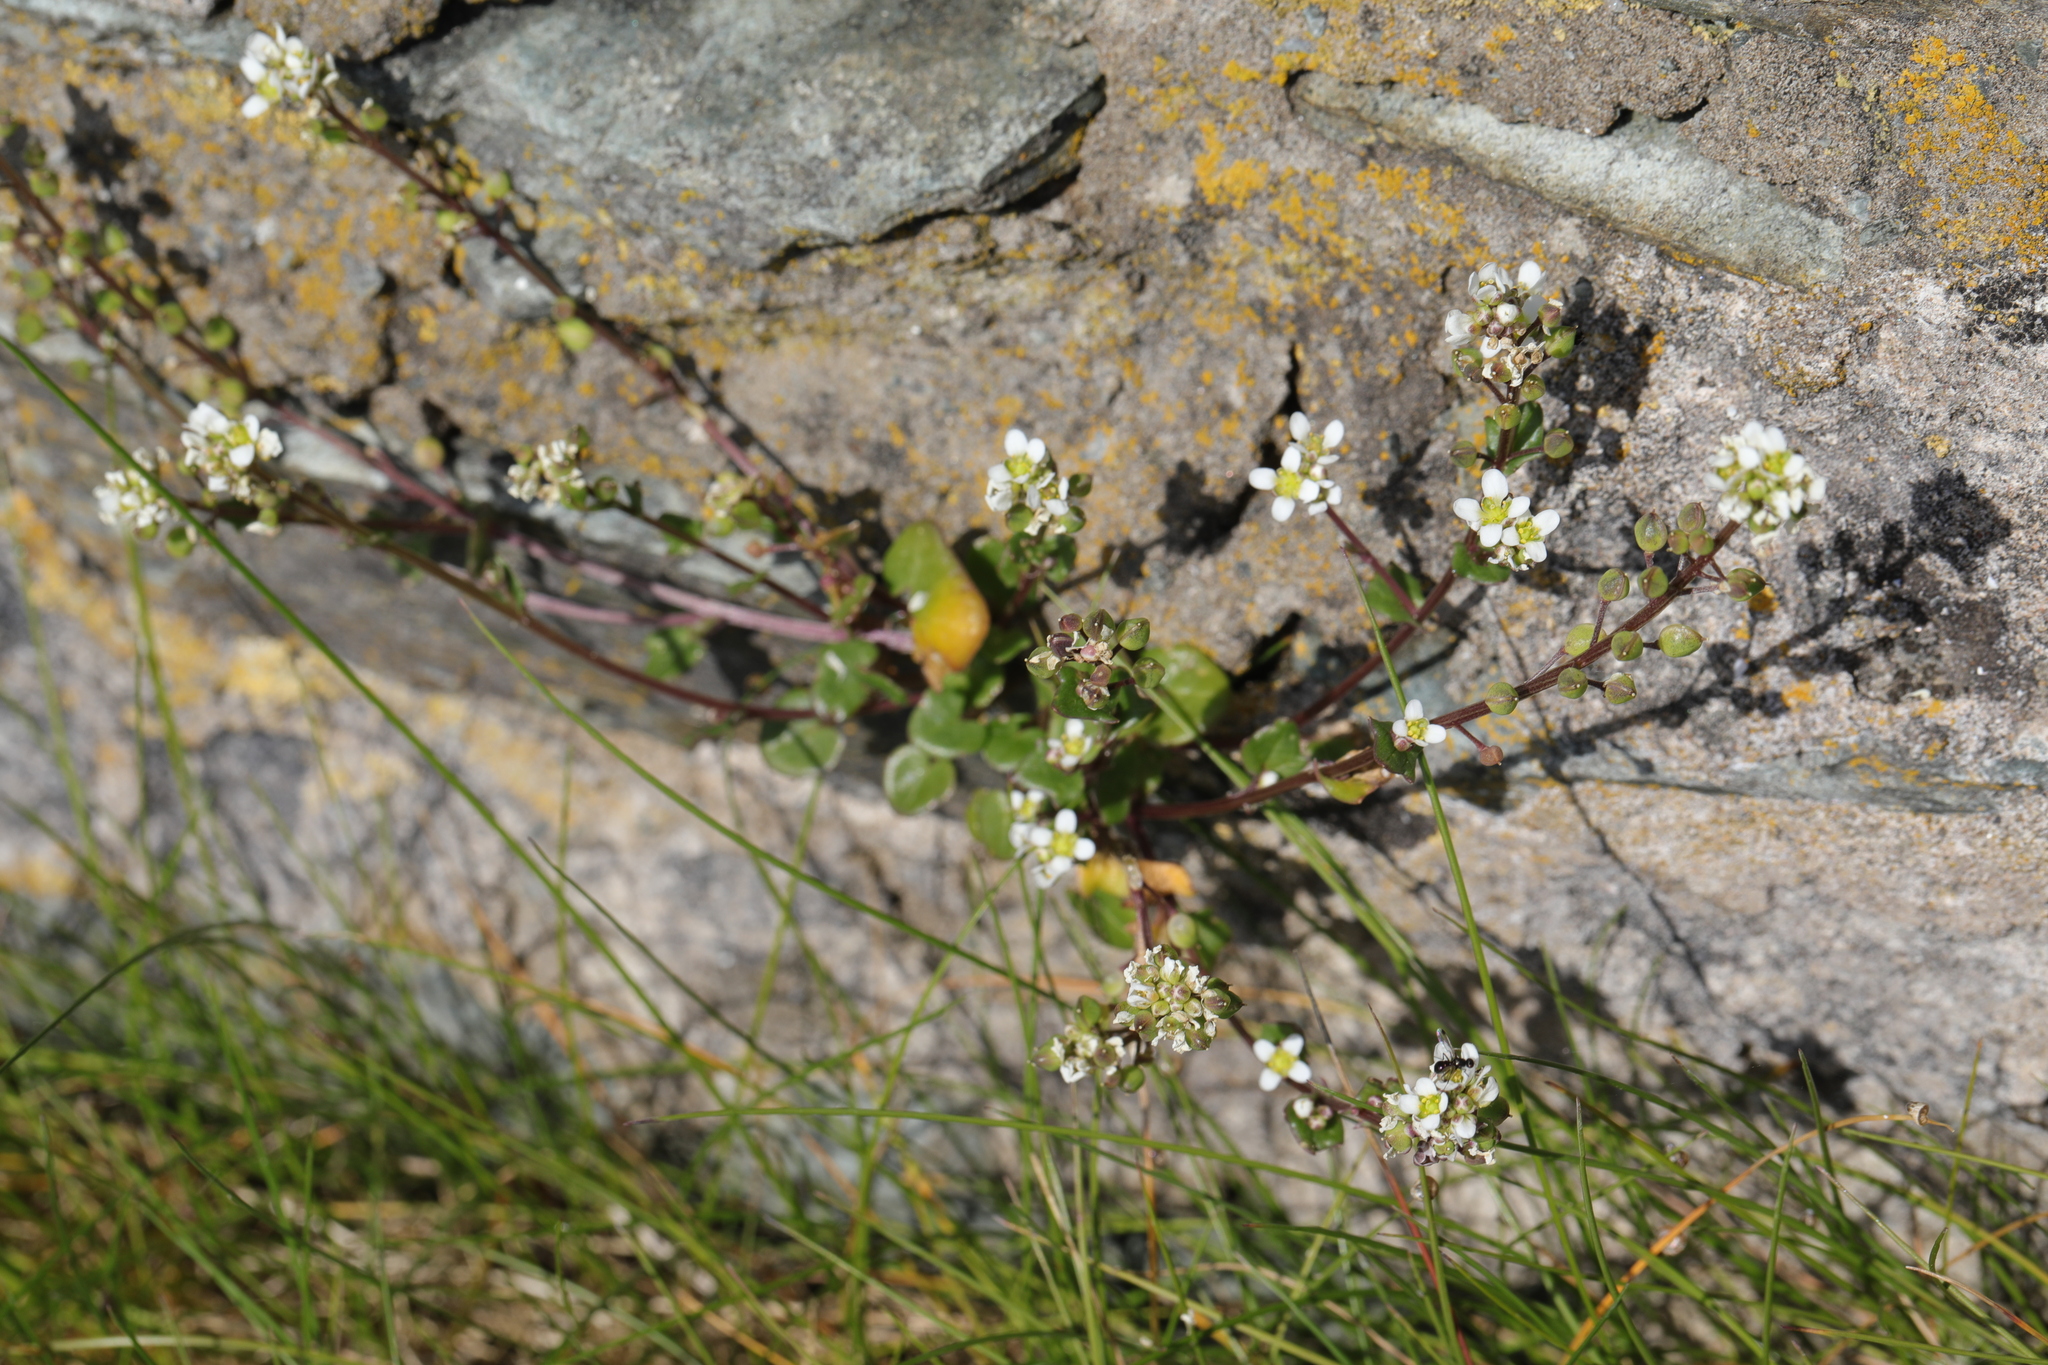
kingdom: Plantae
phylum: Tracheophyta
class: Magnoliopsida
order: Brassicales
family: Brassicaceae
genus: Cochlearia
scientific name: Cochlearia officinalis
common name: Scurvy-grass
